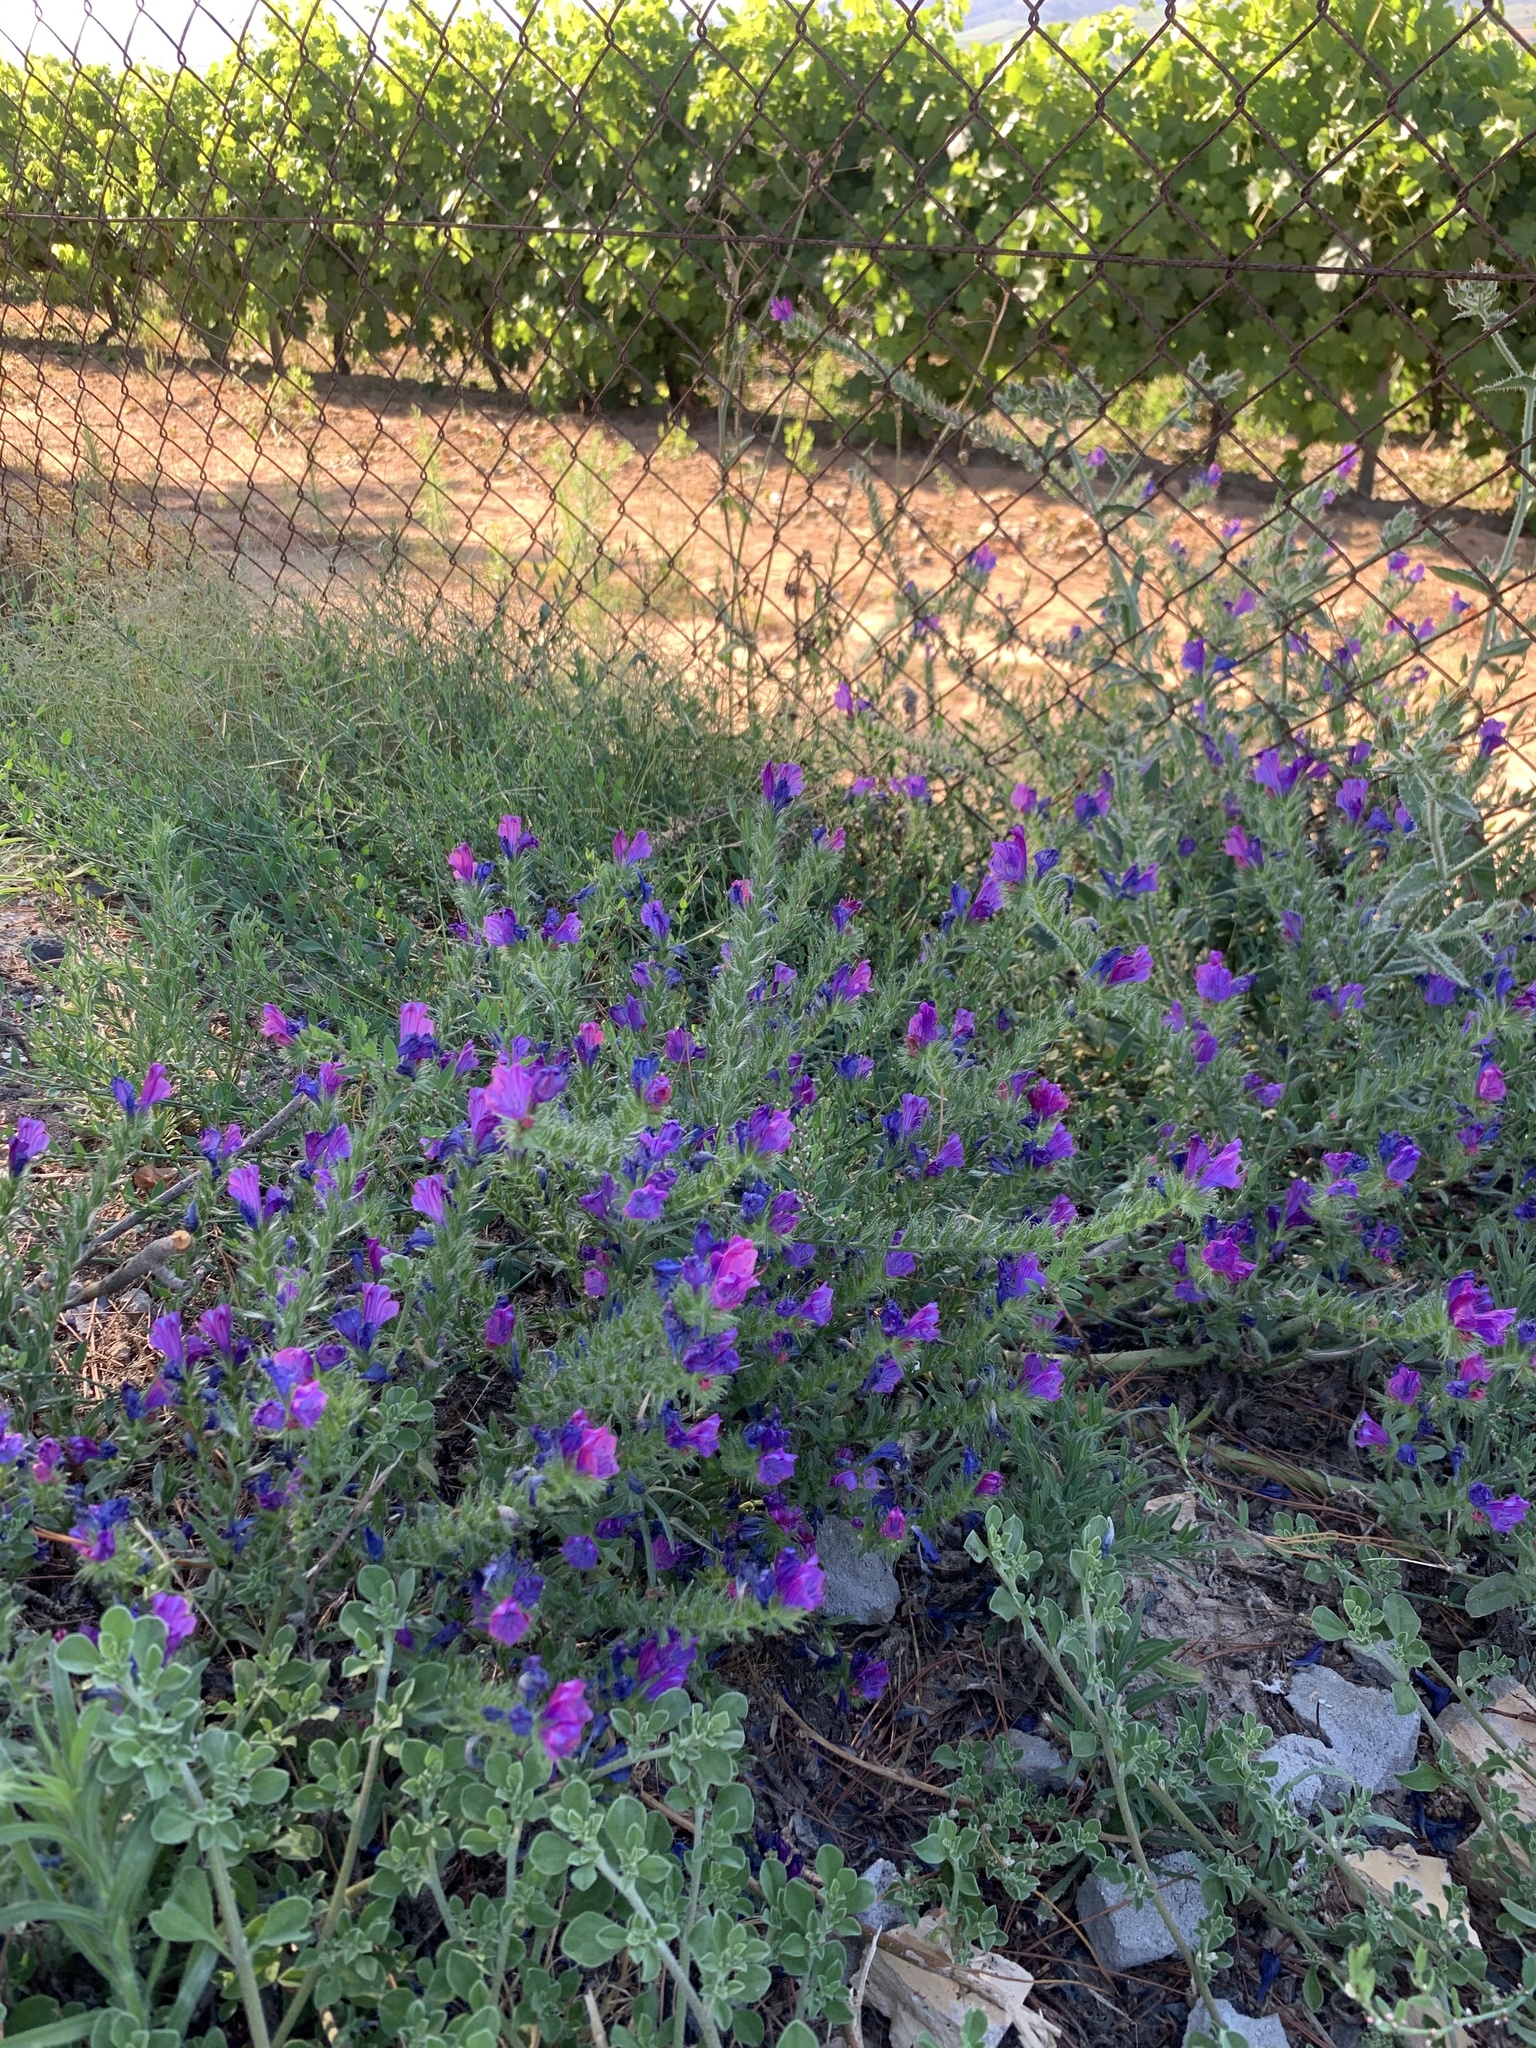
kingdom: Plantae
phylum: Tracheophyta
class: Magnoliopsida
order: Boraginales
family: Boraginaceae
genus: Echium
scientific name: Echium plantagineum
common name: Purple viper's-bugloss
